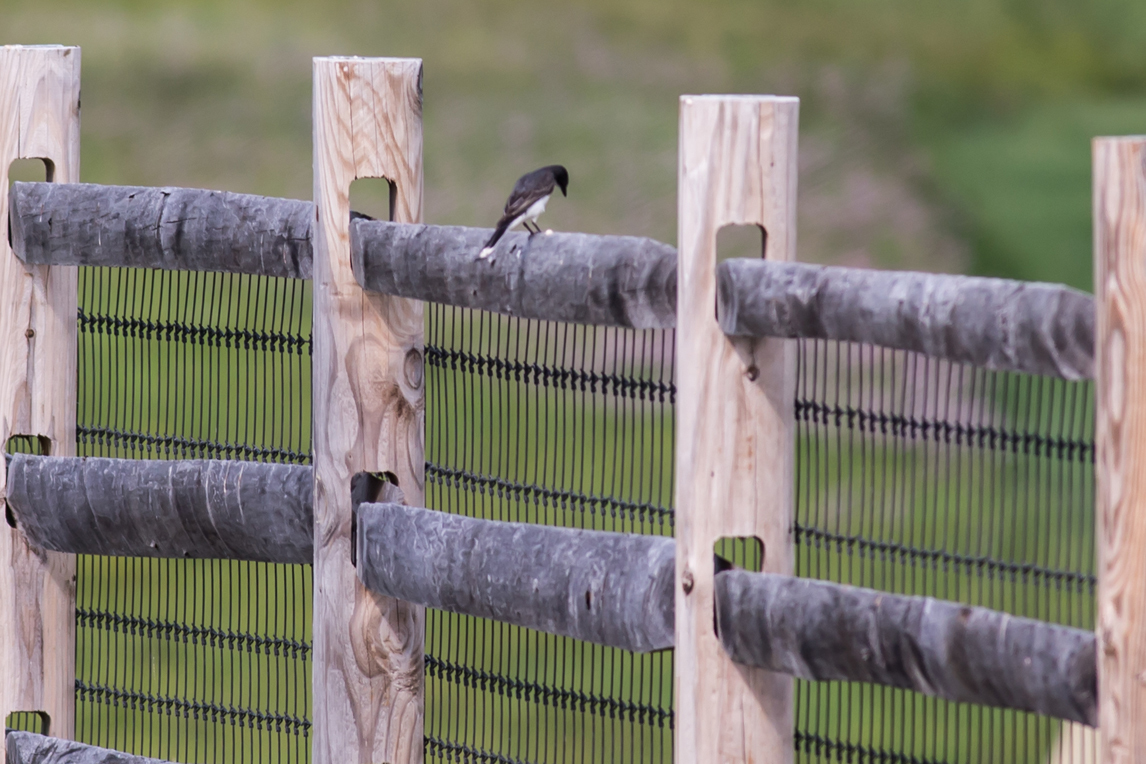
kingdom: Animalia
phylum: Chordata
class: Aves
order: Passeriformes
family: Tyrannidae
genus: Tyrannus
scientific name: Tyrannus tyrannus
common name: Eastern kingbird
